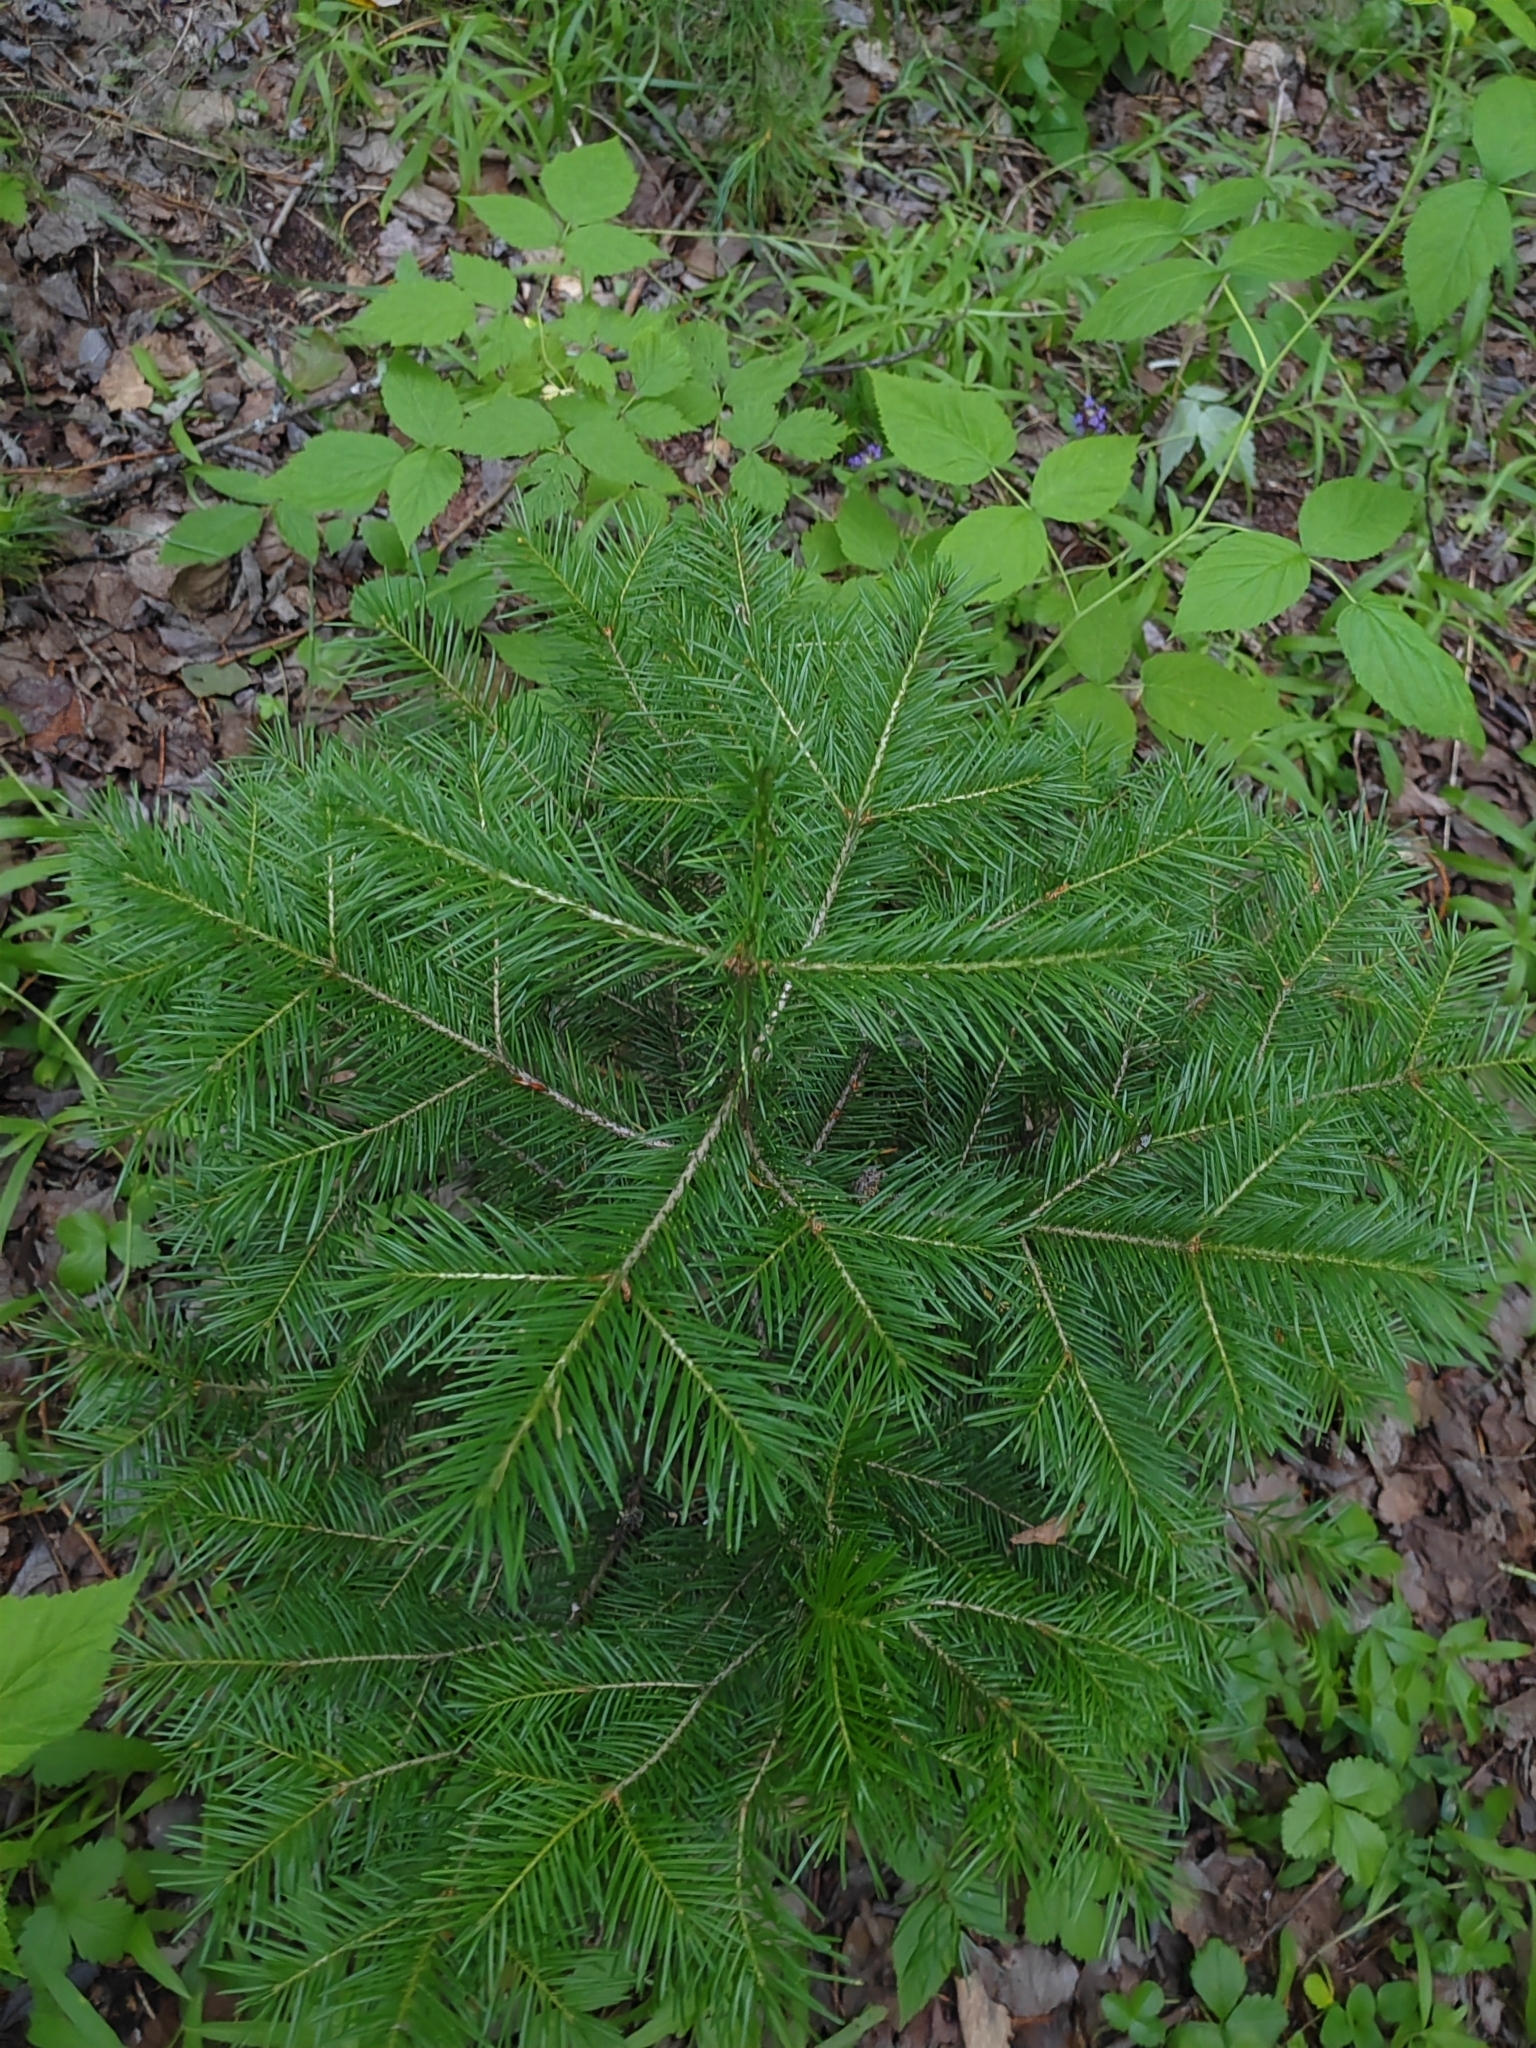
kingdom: Plantae
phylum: Tracheophyta
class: Pinopsida
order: Pinales
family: Pinaceae
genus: Abies
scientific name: Abies sibirica
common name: Siberian fir
